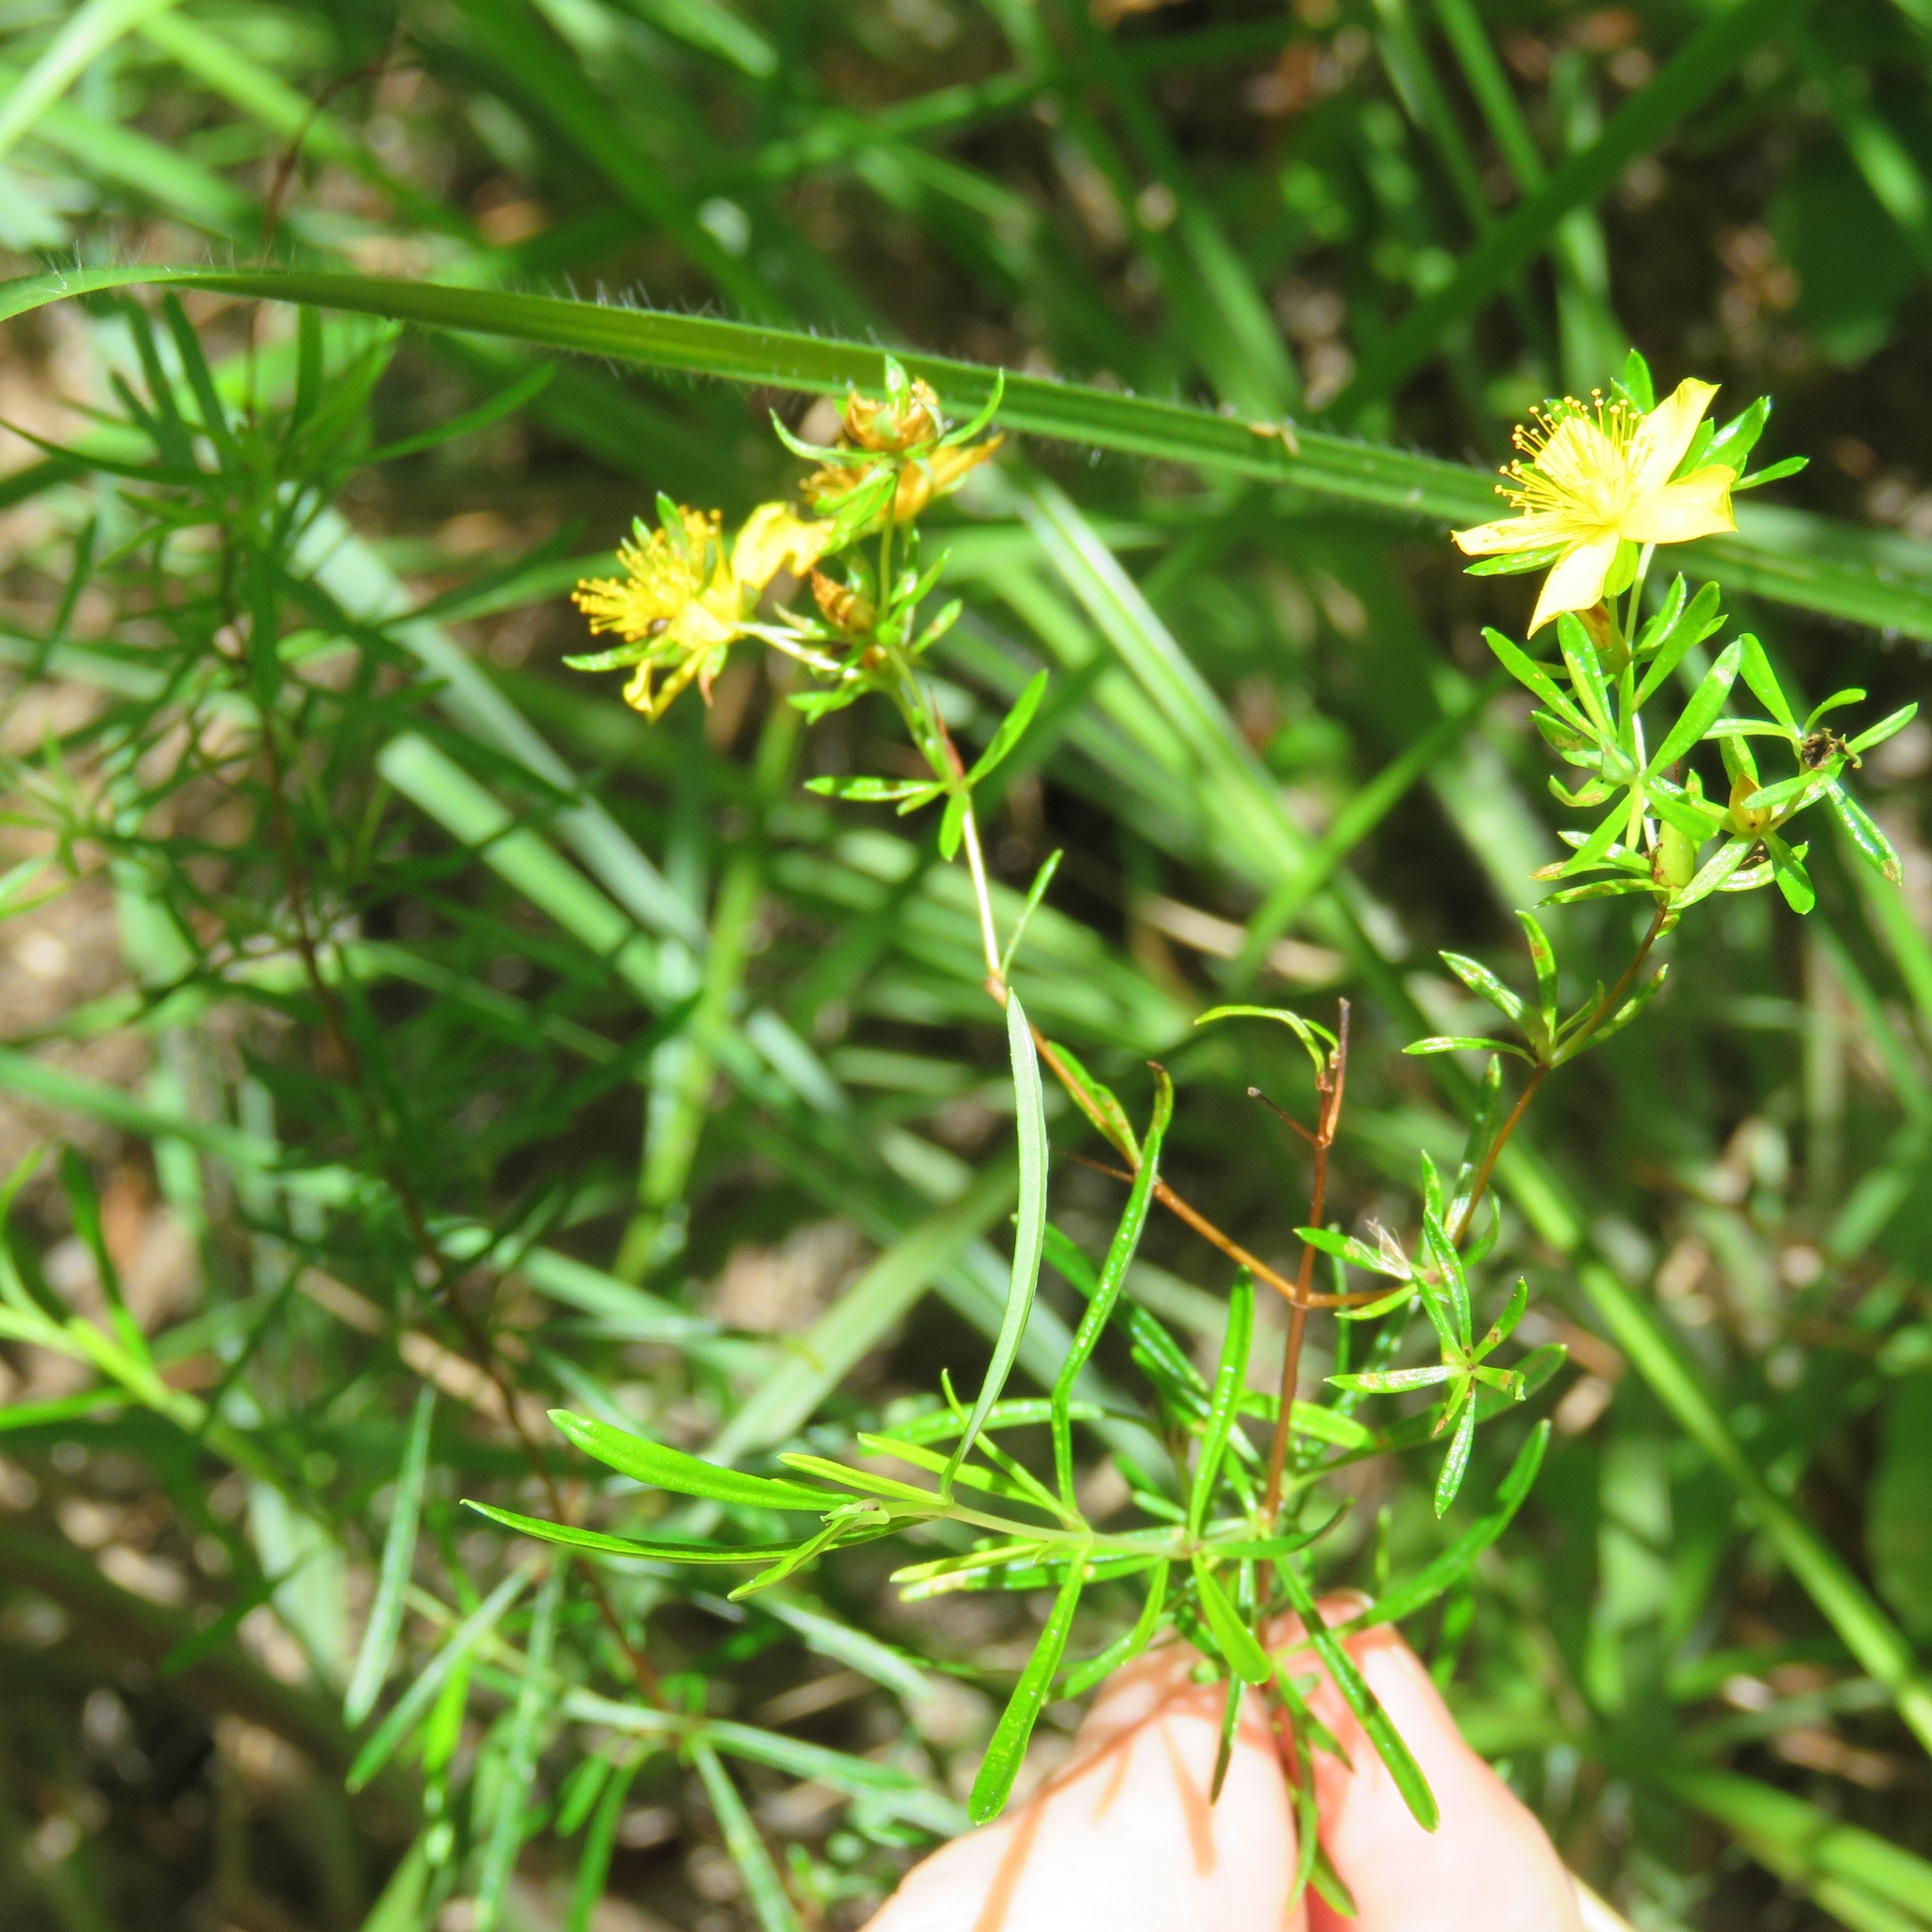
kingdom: Plantae
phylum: Tracheophyta
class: Magnoliopsida
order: Malpighiales
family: Hypericaceae
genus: Hypericum
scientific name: Hypericum galioides
